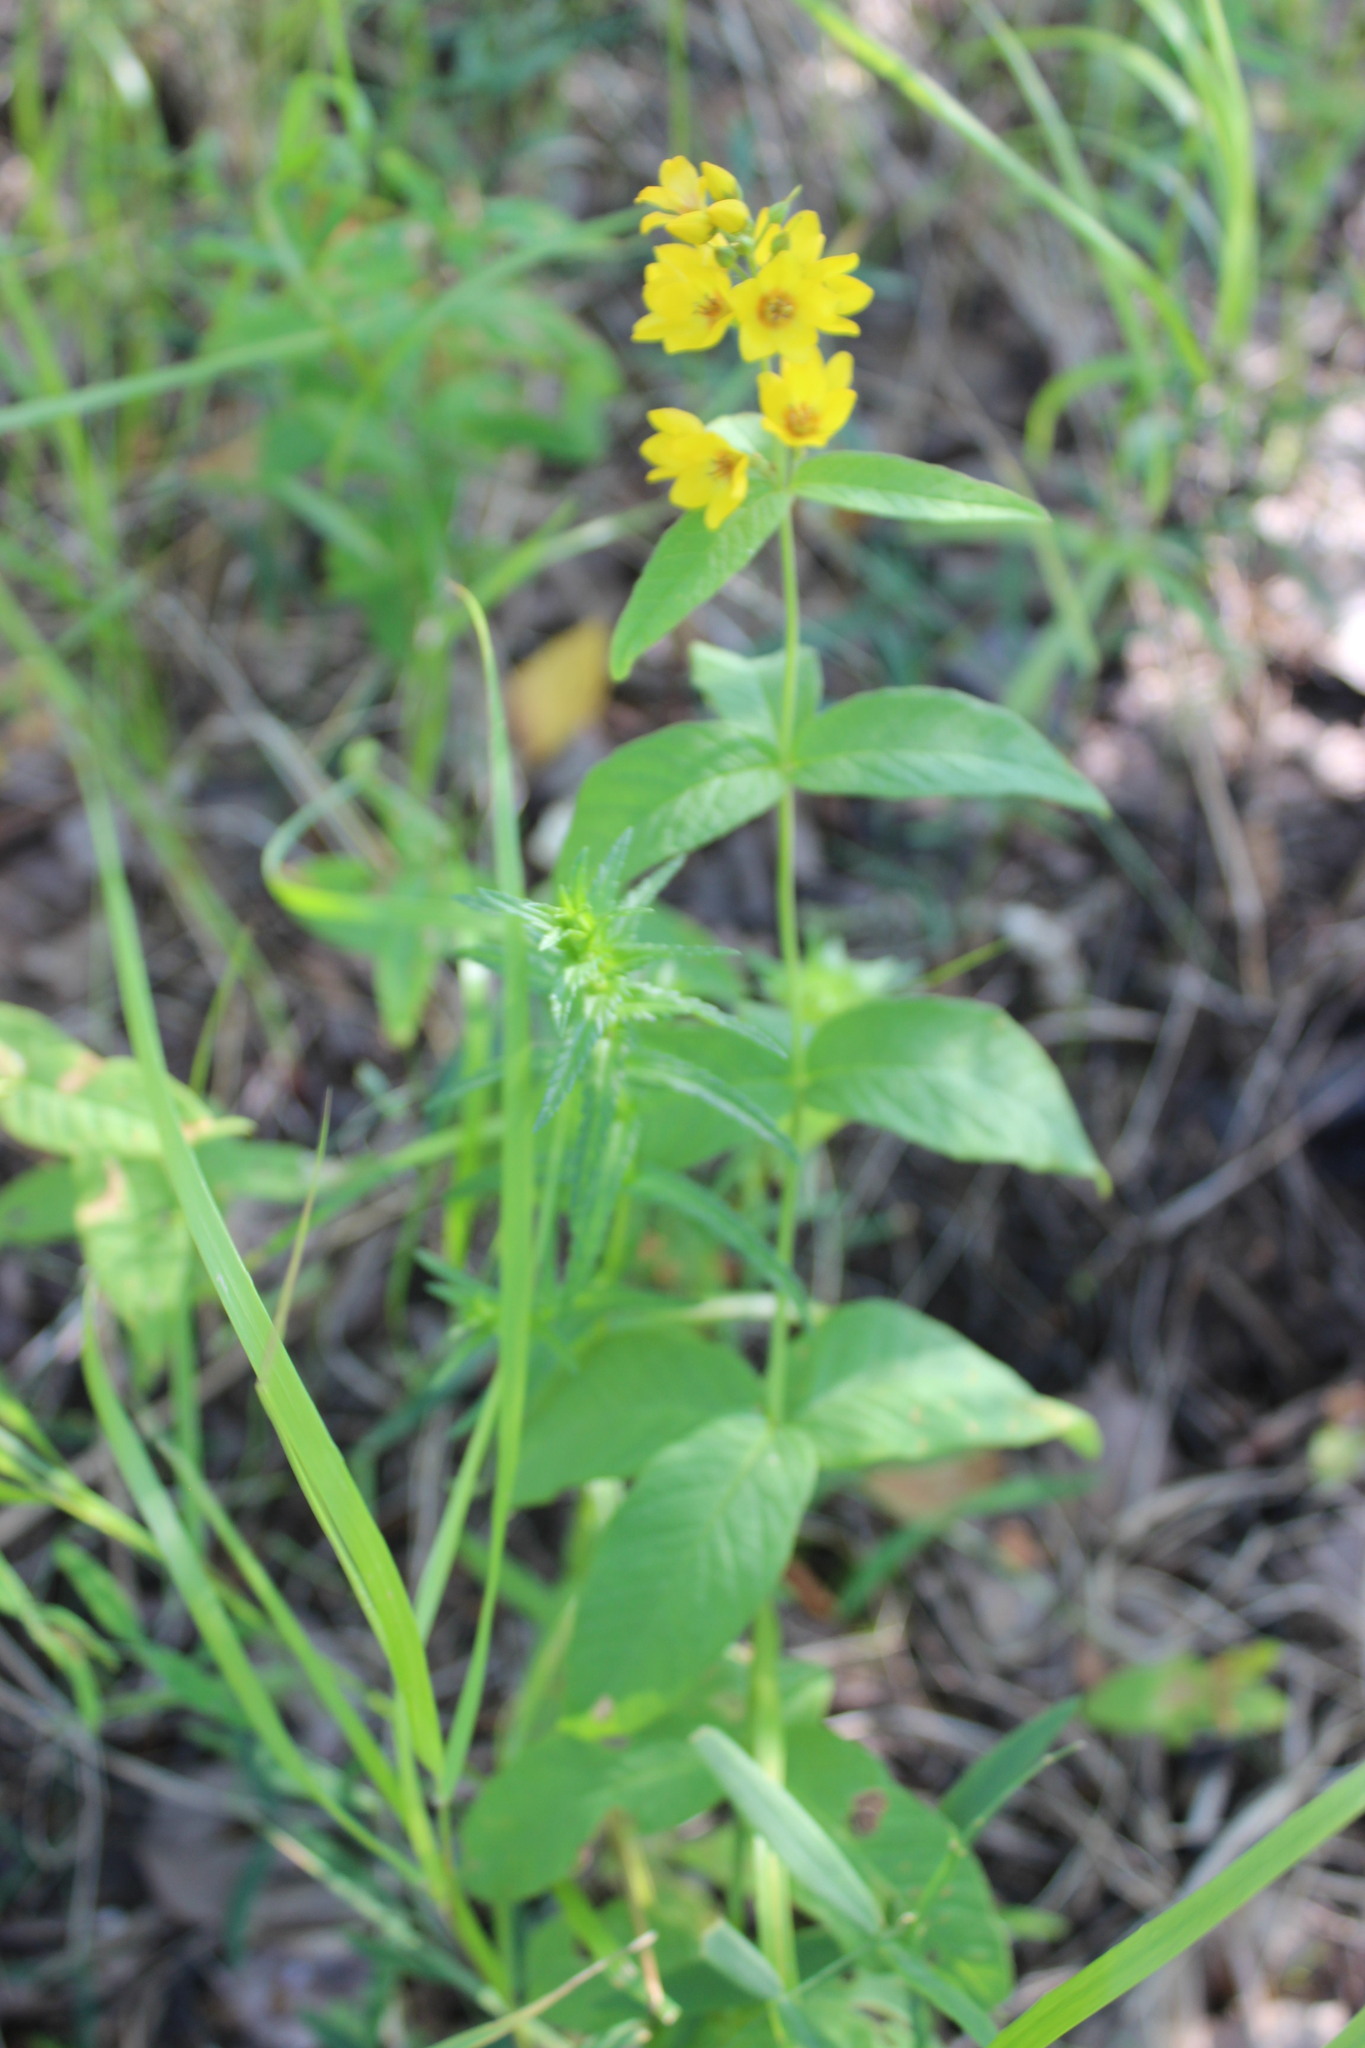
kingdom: Plantae
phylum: Tracheophyta
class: Magnoliopsida
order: Ericales
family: Primulaceae
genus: Lysimachia
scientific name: Lysimachia vulgaris
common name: Yellow loosestrife
